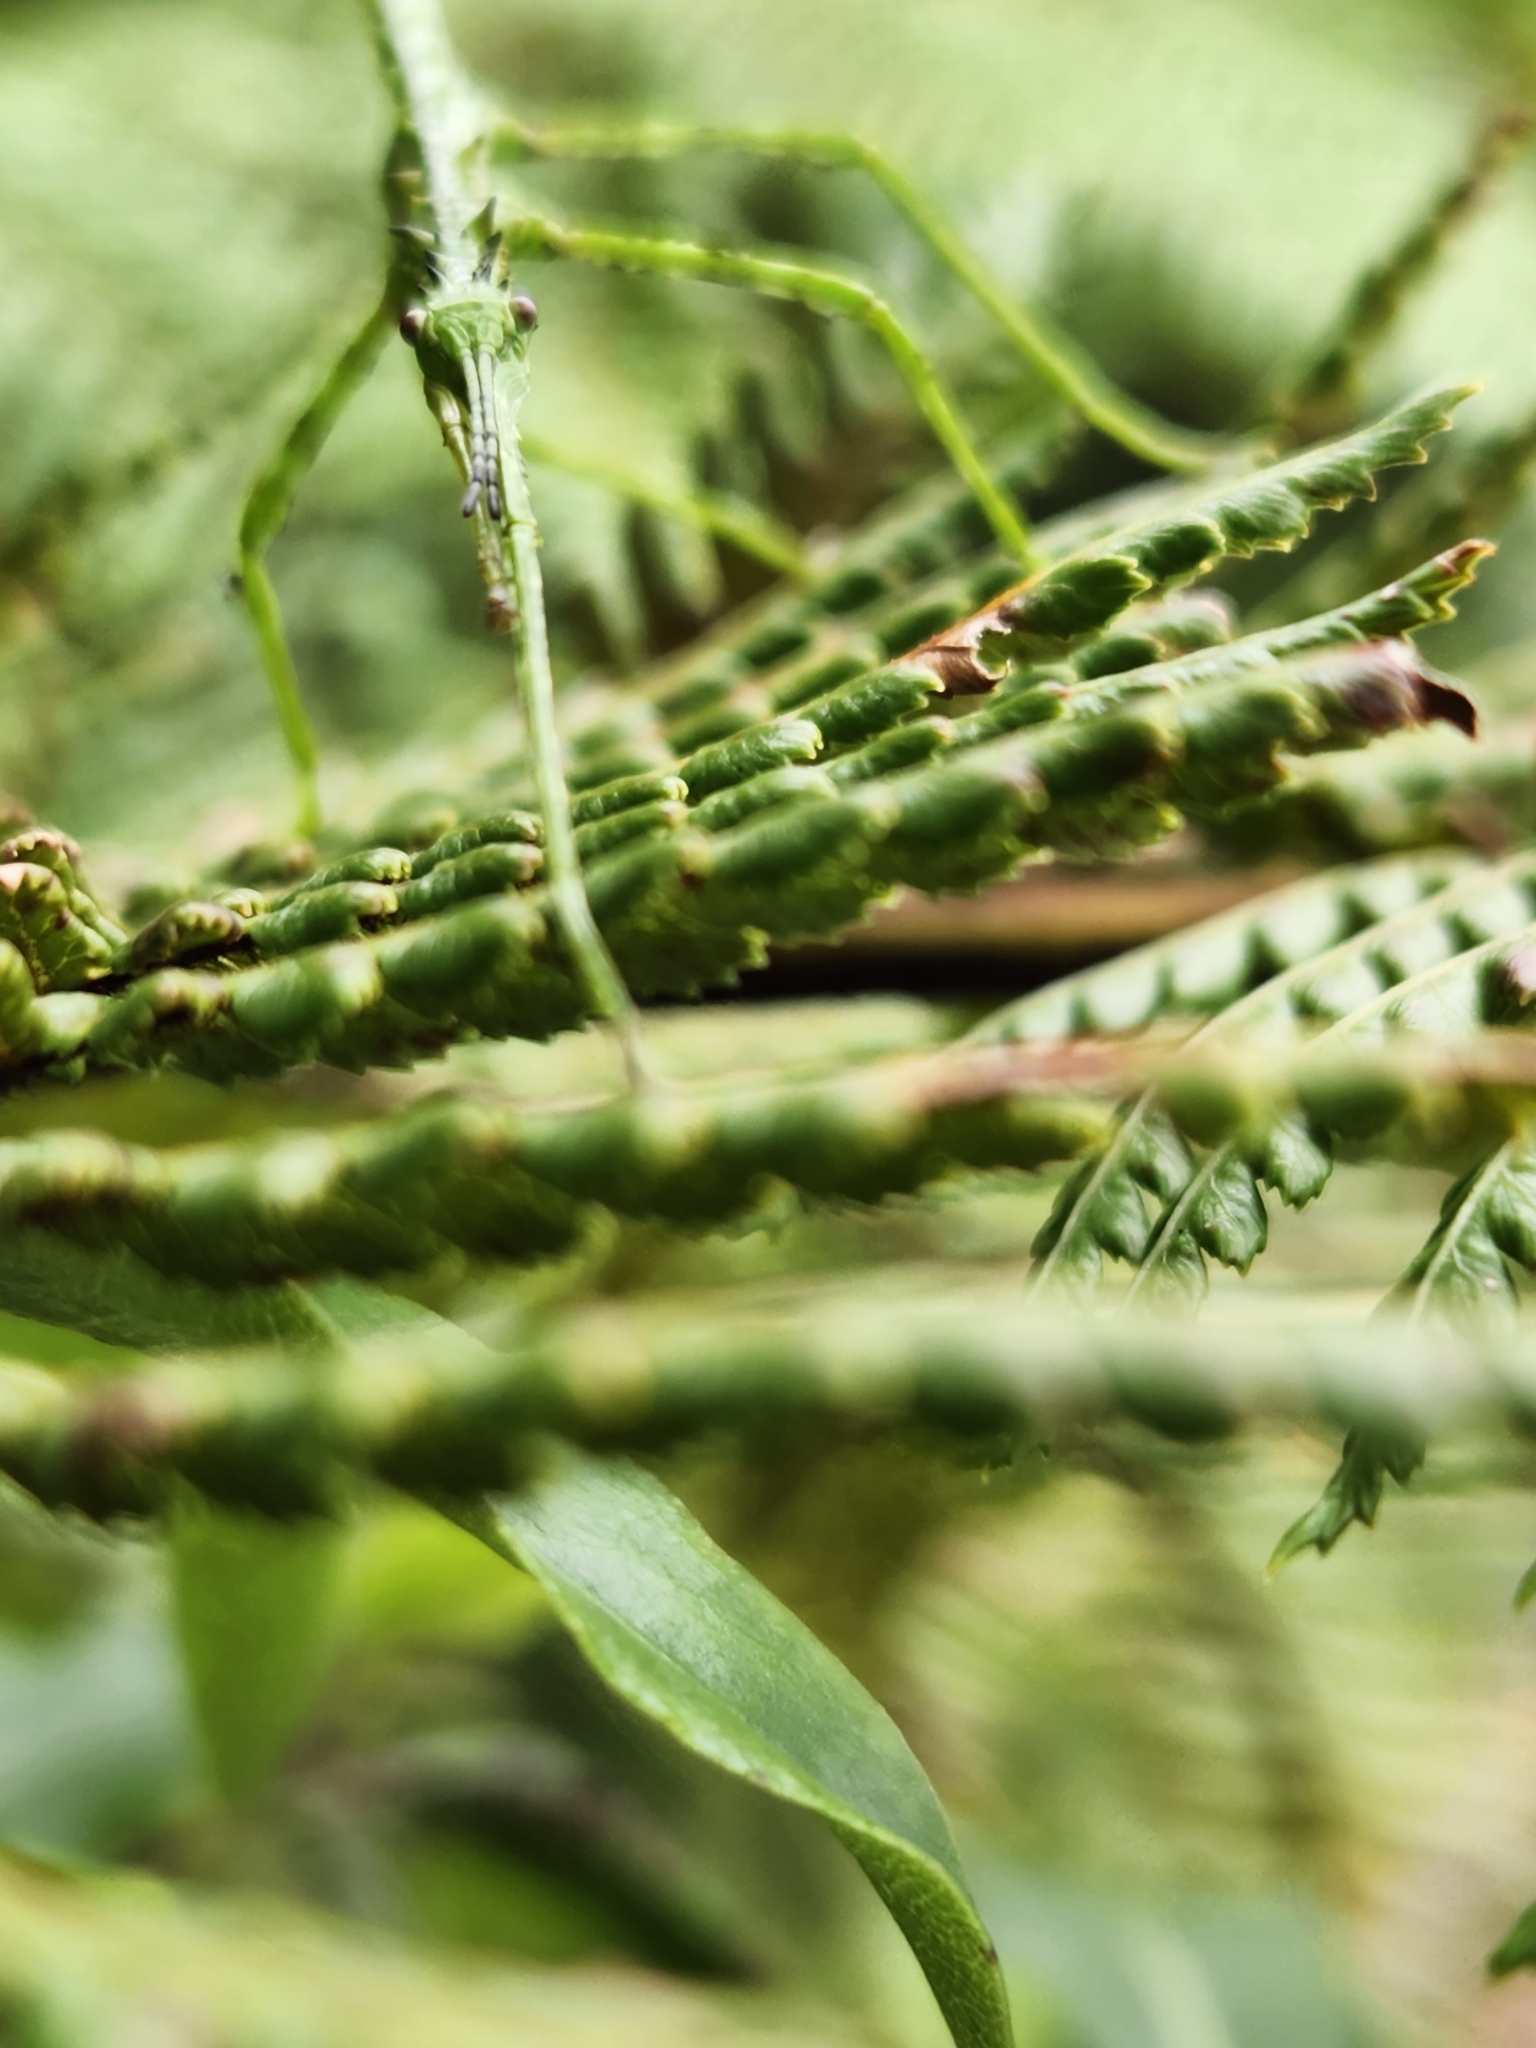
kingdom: Animalia
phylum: Arthropoda
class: Insecta
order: Phasmida
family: Phasmatidae
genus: Acanthoxyla
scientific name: Acanthoxyla prasina
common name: Black-spined stick insect
